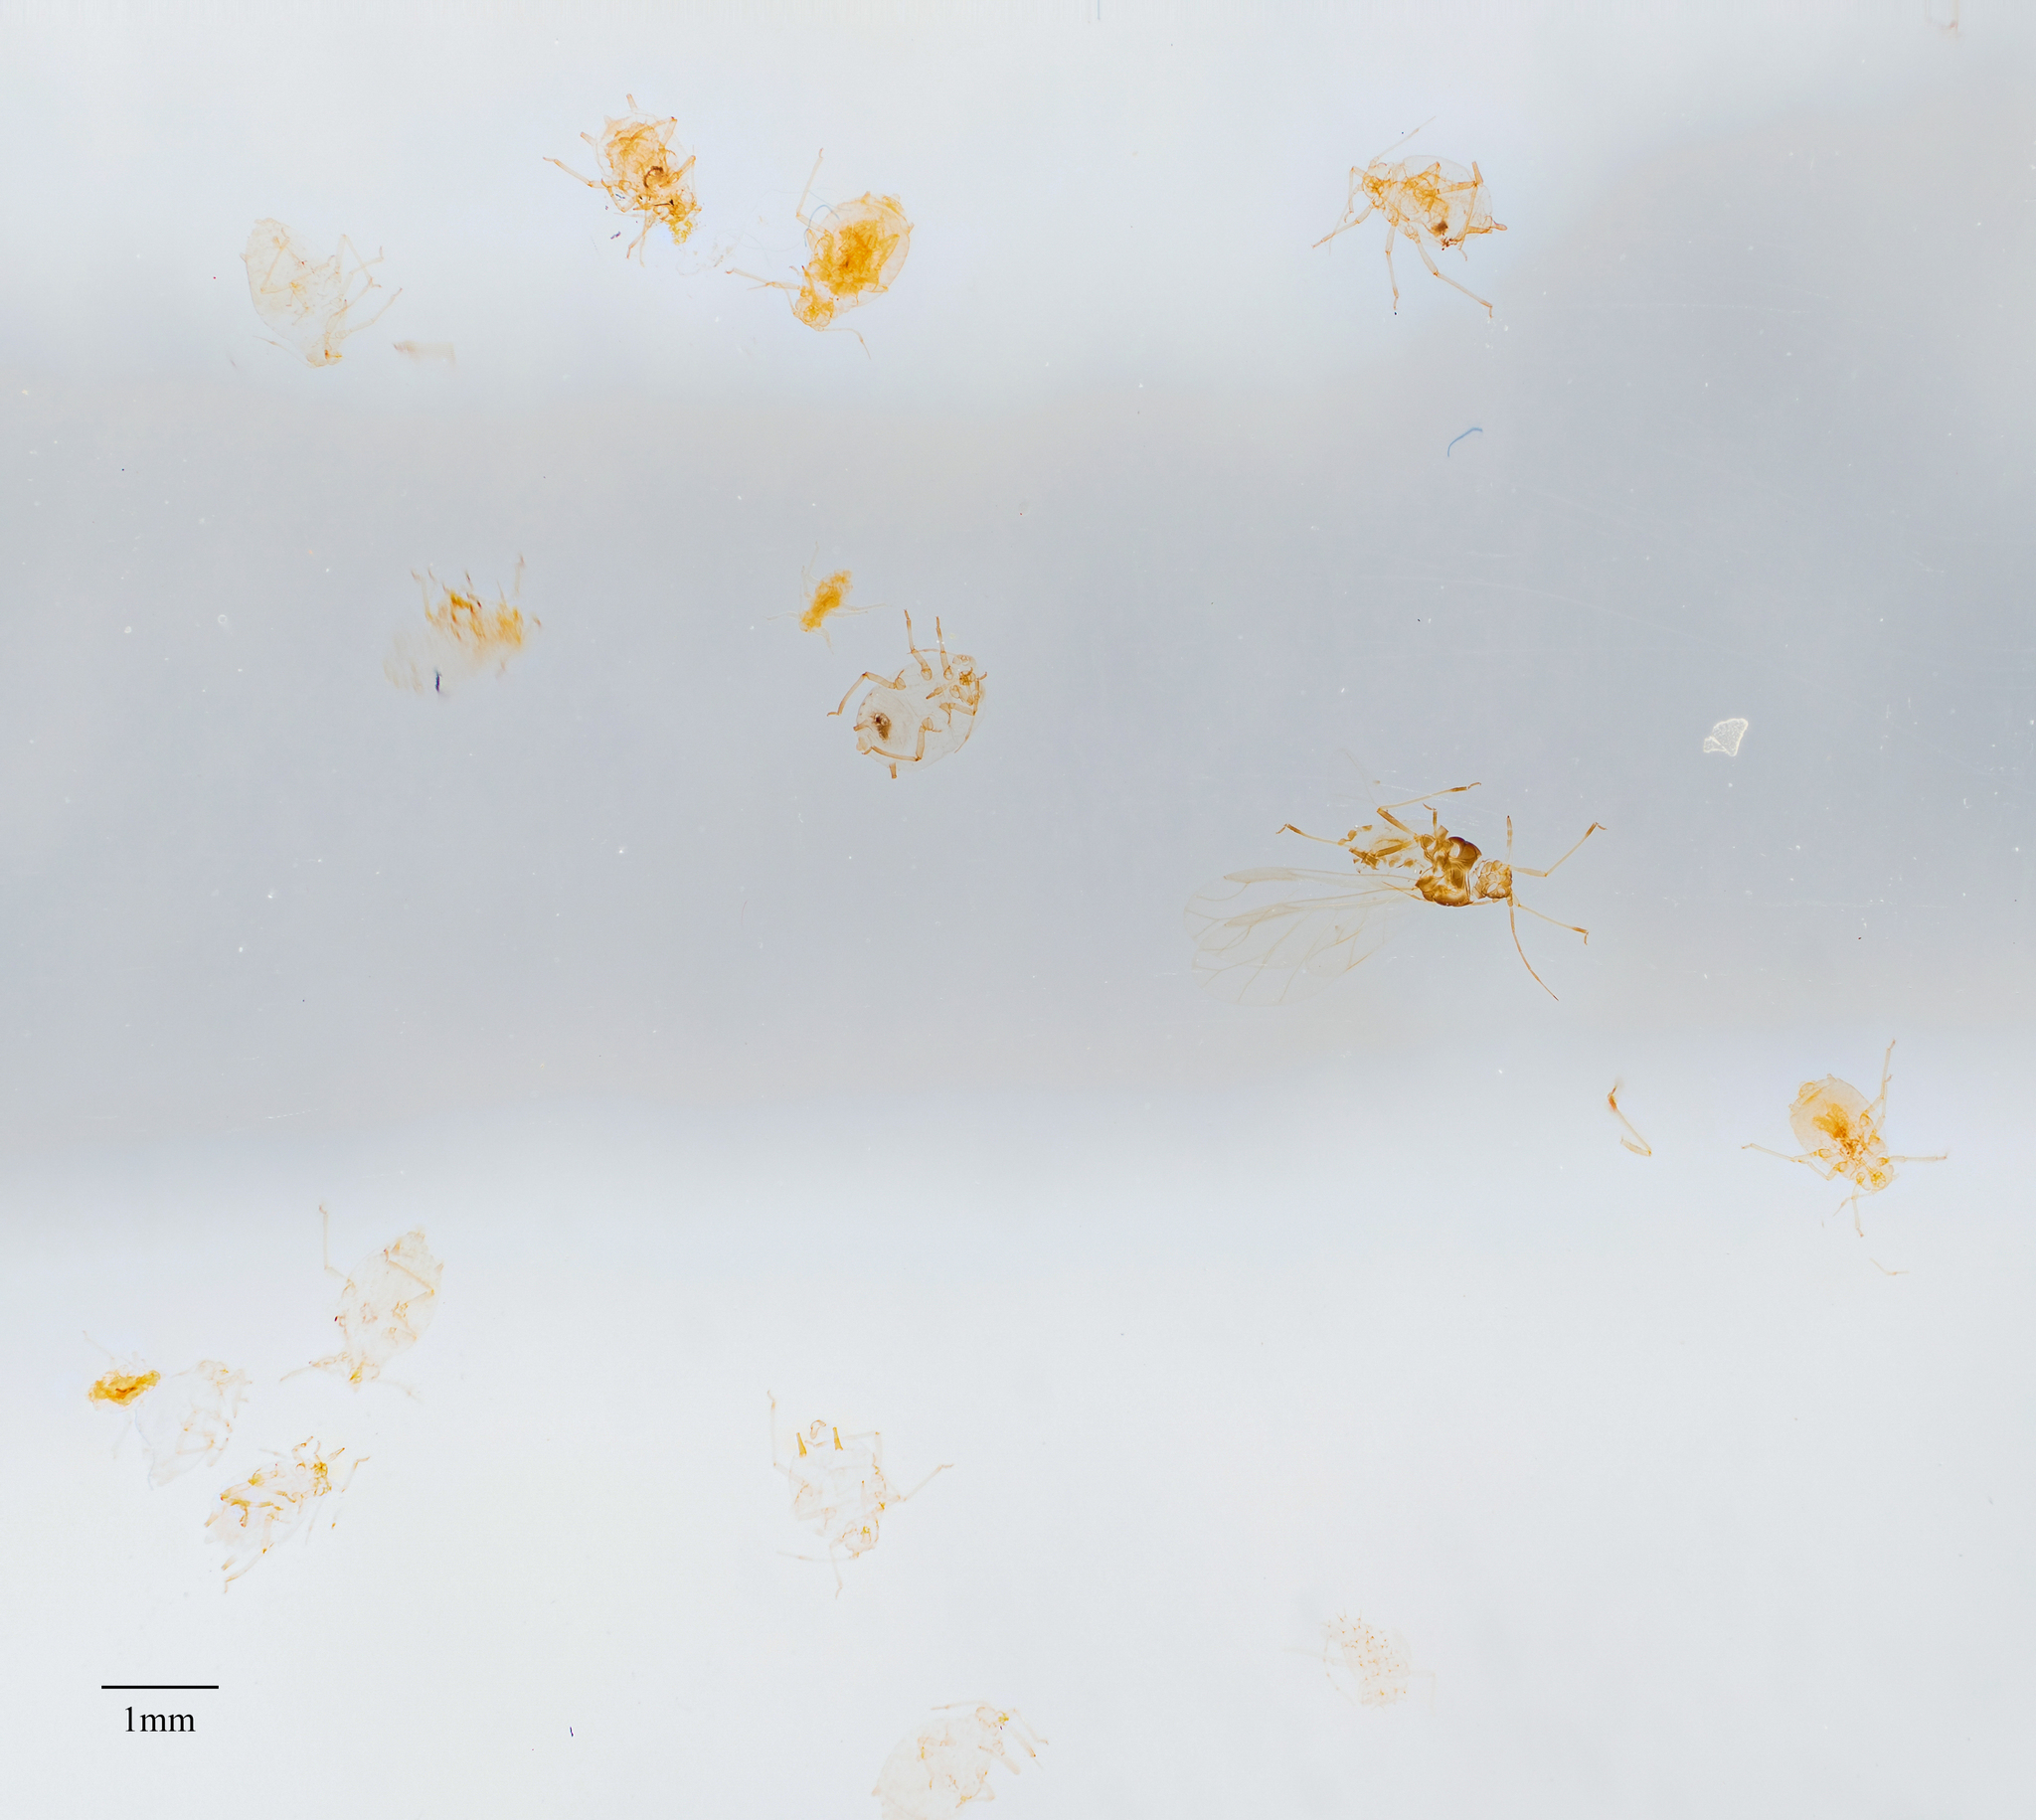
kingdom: Animalia
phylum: Arthropoda
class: Insecta
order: Hemiptera
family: Aphididae
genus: Aphis
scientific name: Aphis
